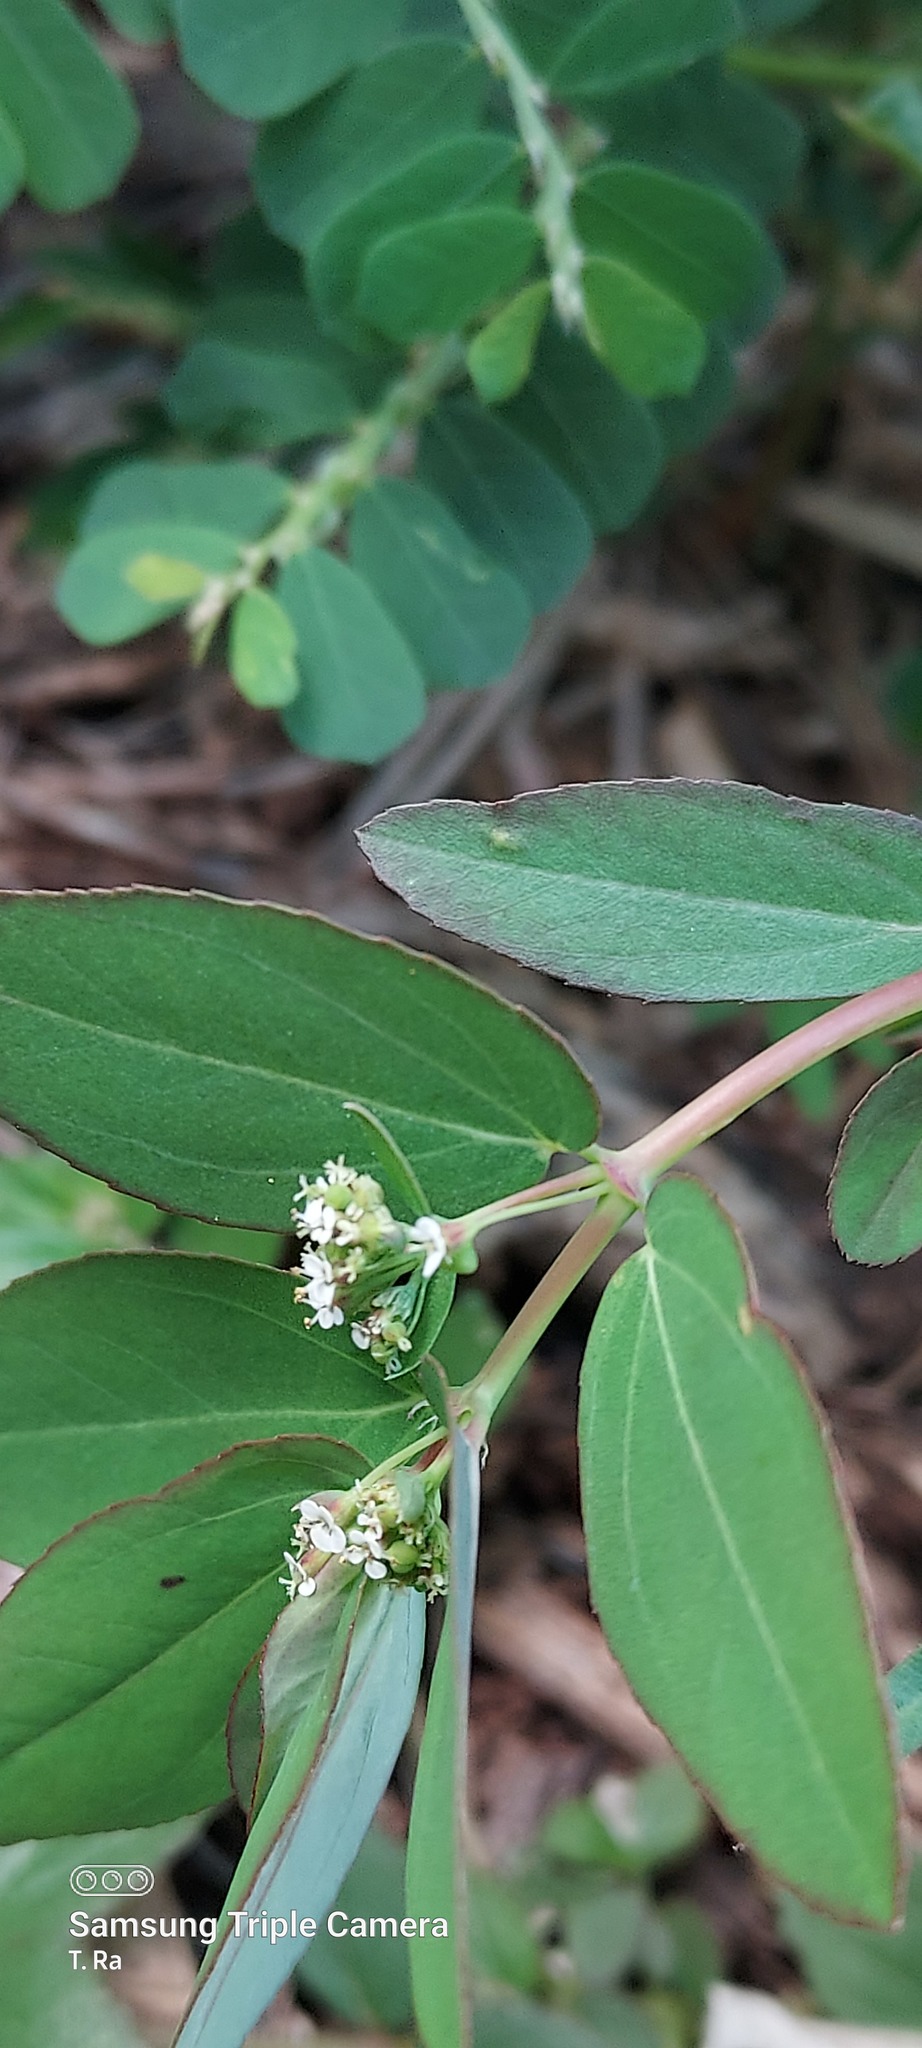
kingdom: Plantae
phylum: Tracheophyta
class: Magnoliopsida
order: Malpighiales
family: Euphorbiaceae
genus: Euphorbia
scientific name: Euphorbia hypericifolia
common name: Graceful sandmat
